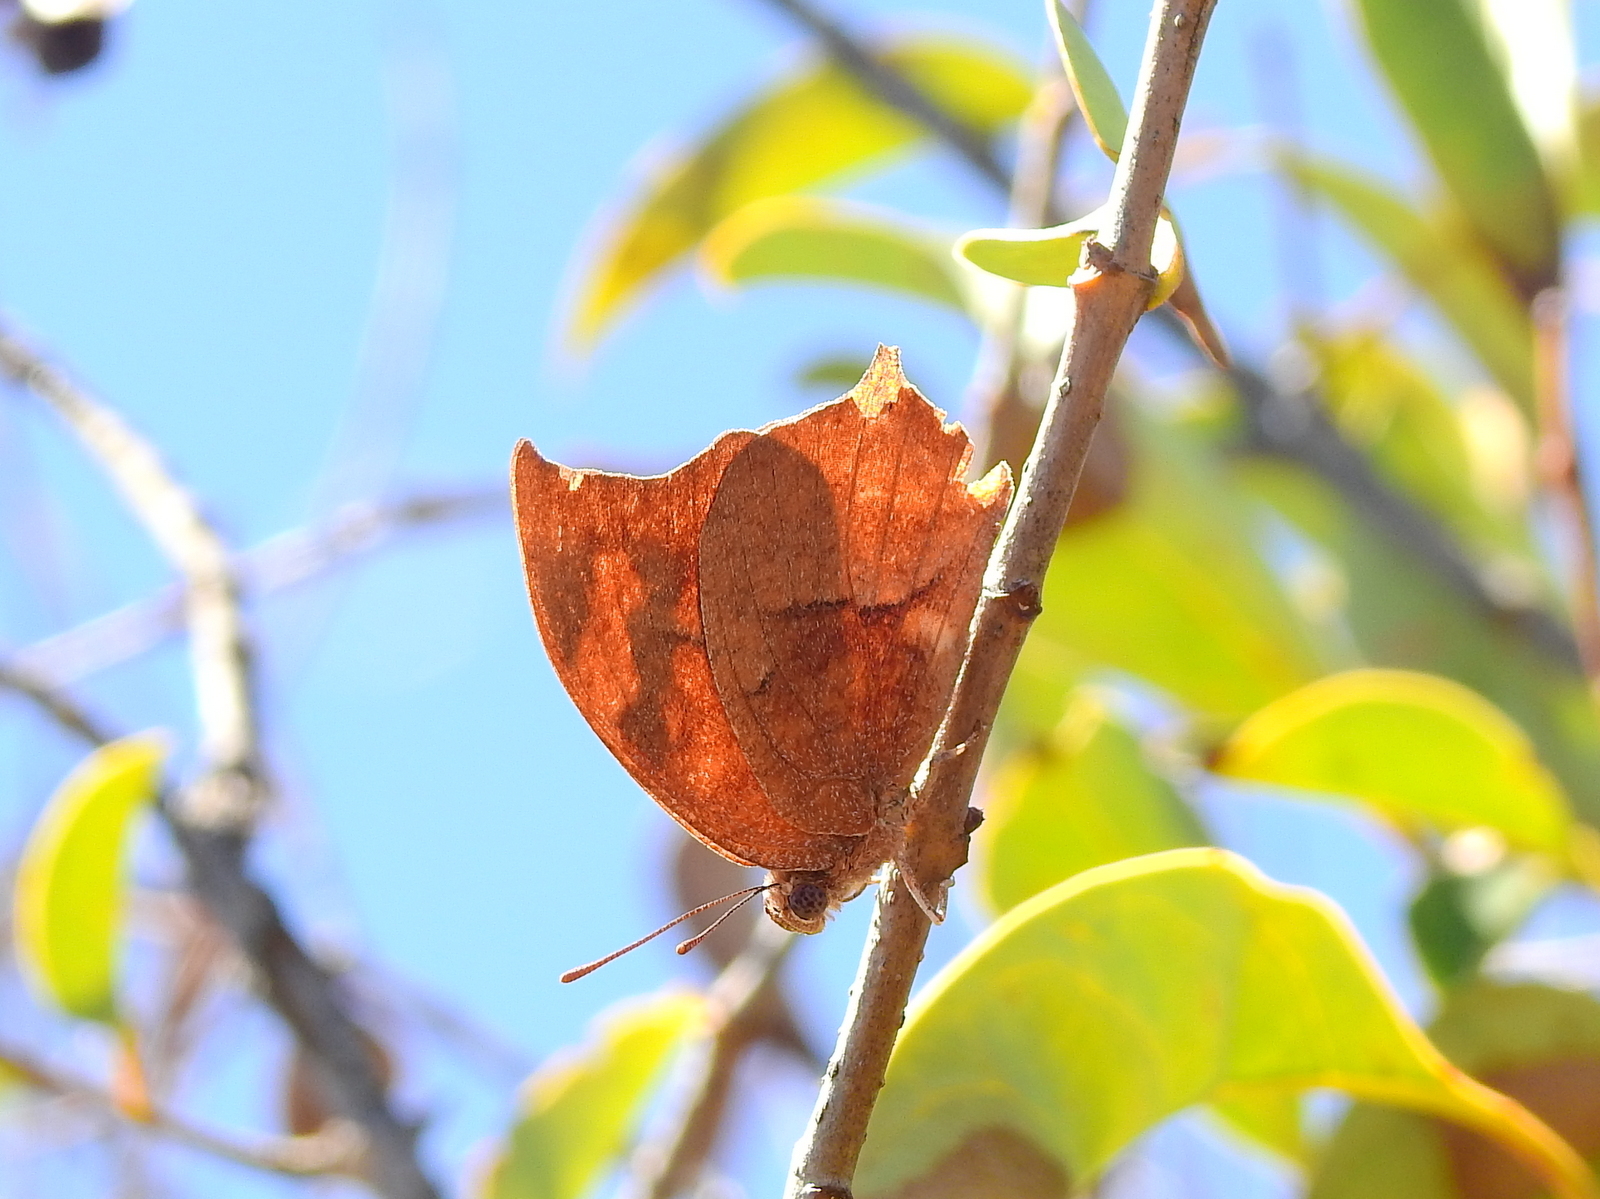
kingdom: Animalia
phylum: Arthropoda
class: Insecta
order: Lepidoptera
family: Nymphalidae
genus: Fountainea
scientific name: Fountainea
